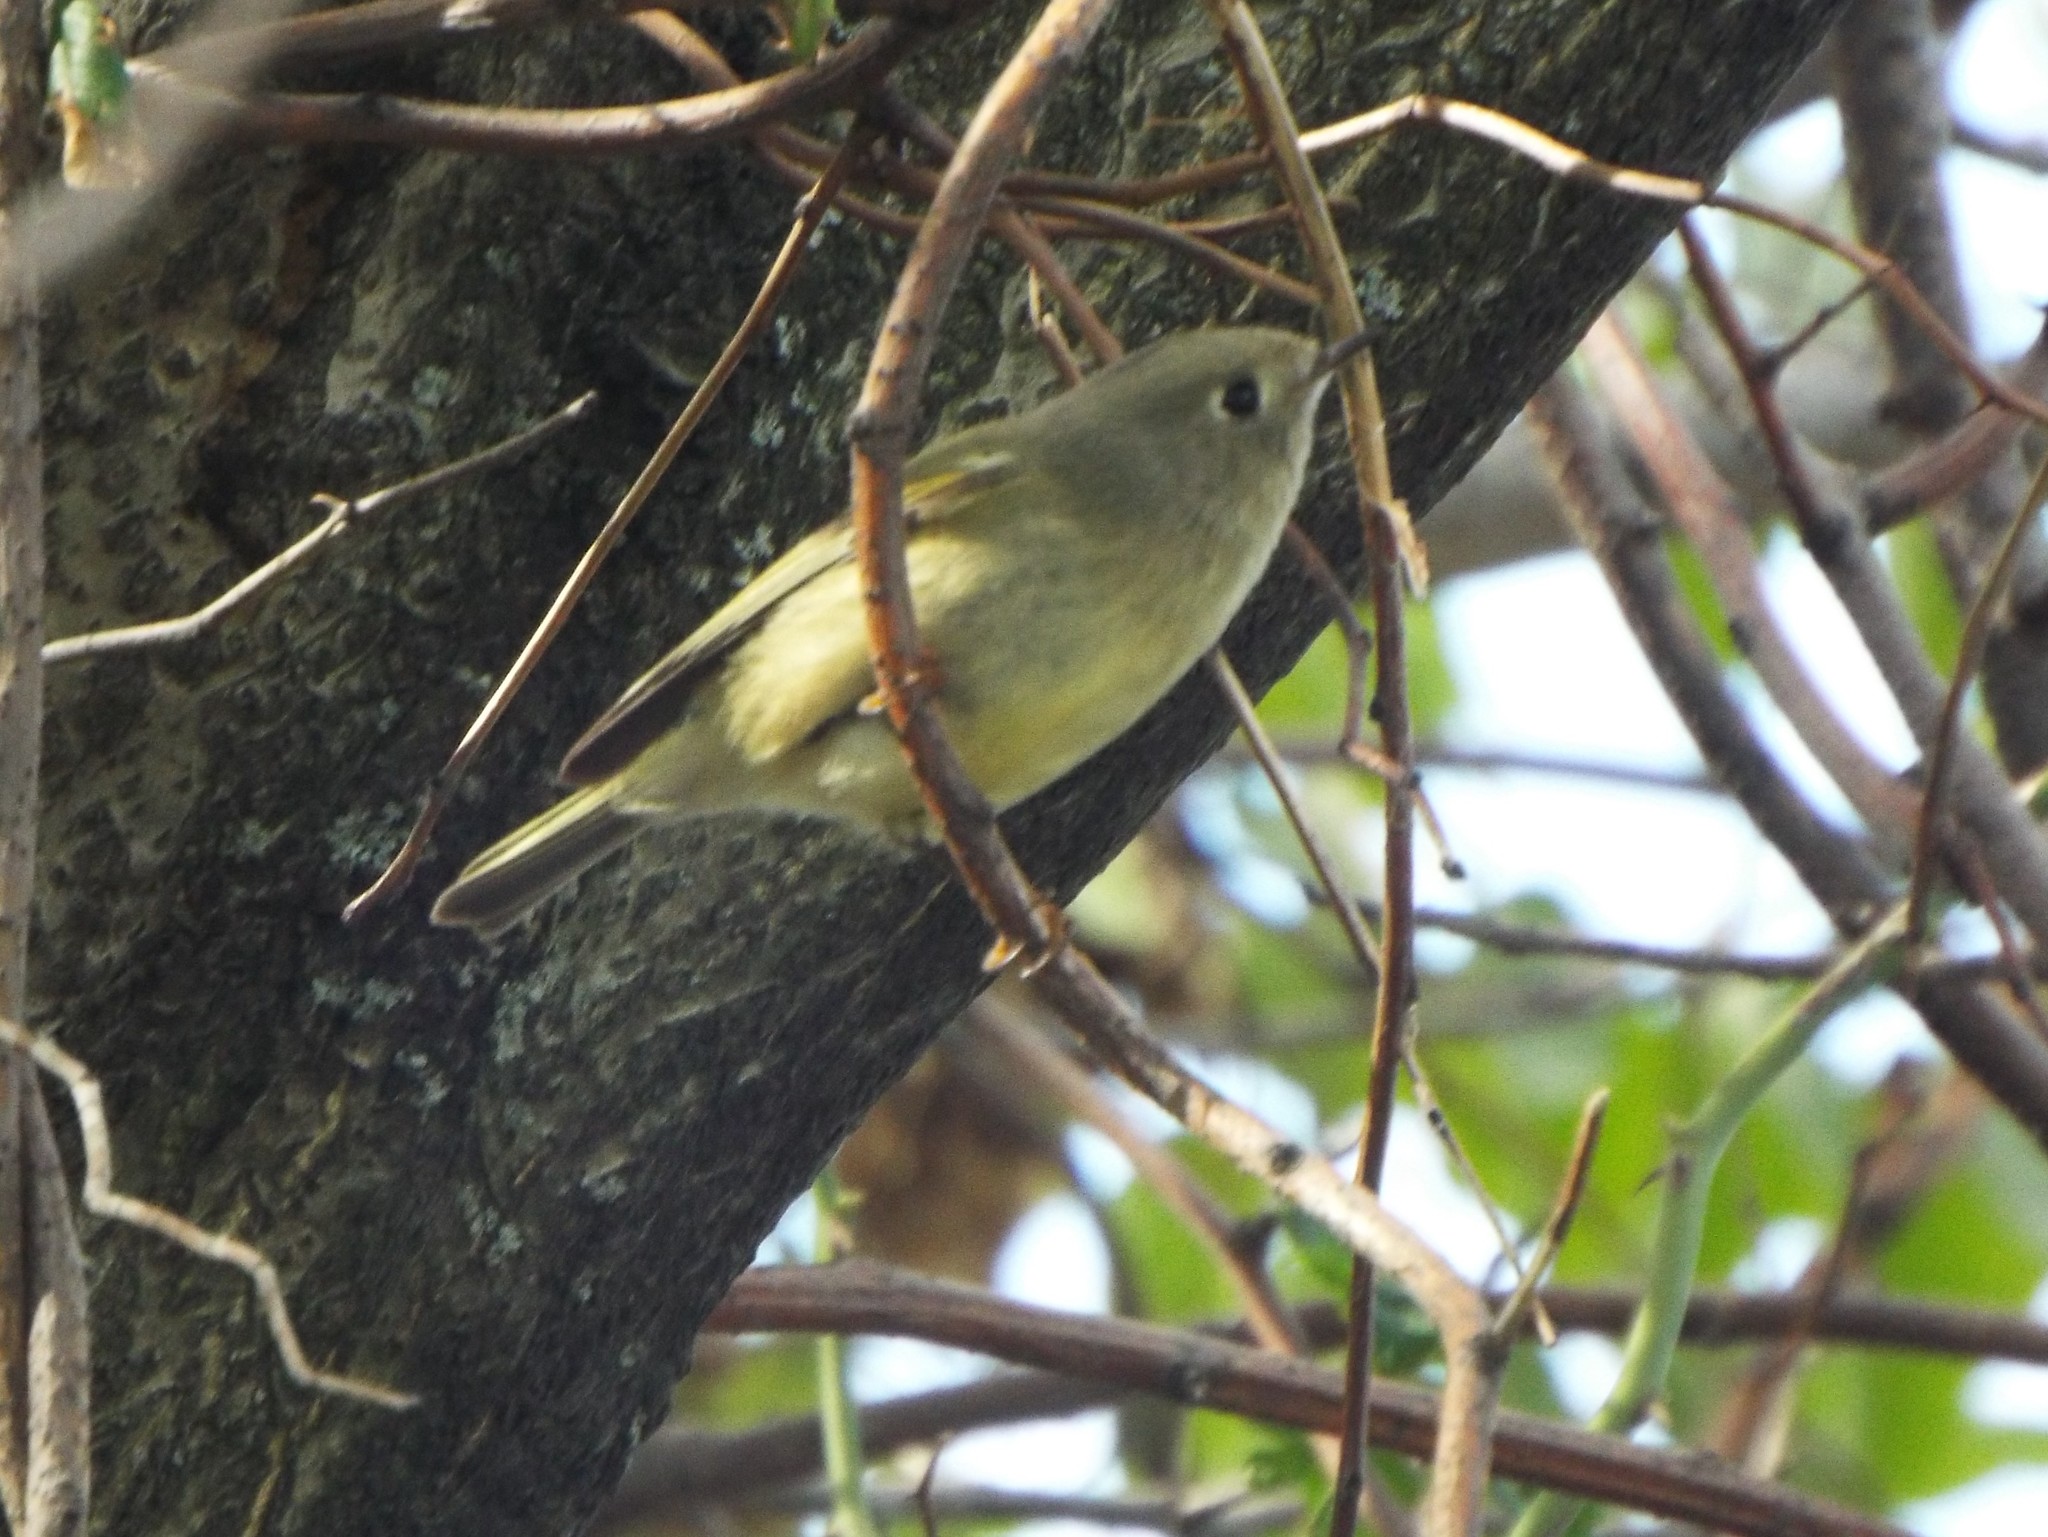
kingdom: Animalia
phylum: Chordata
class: Aves
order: Passeriformes
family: Regulidae
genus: Regulus
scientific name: Regulus calendula
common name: Ruby-crowned kinglet
